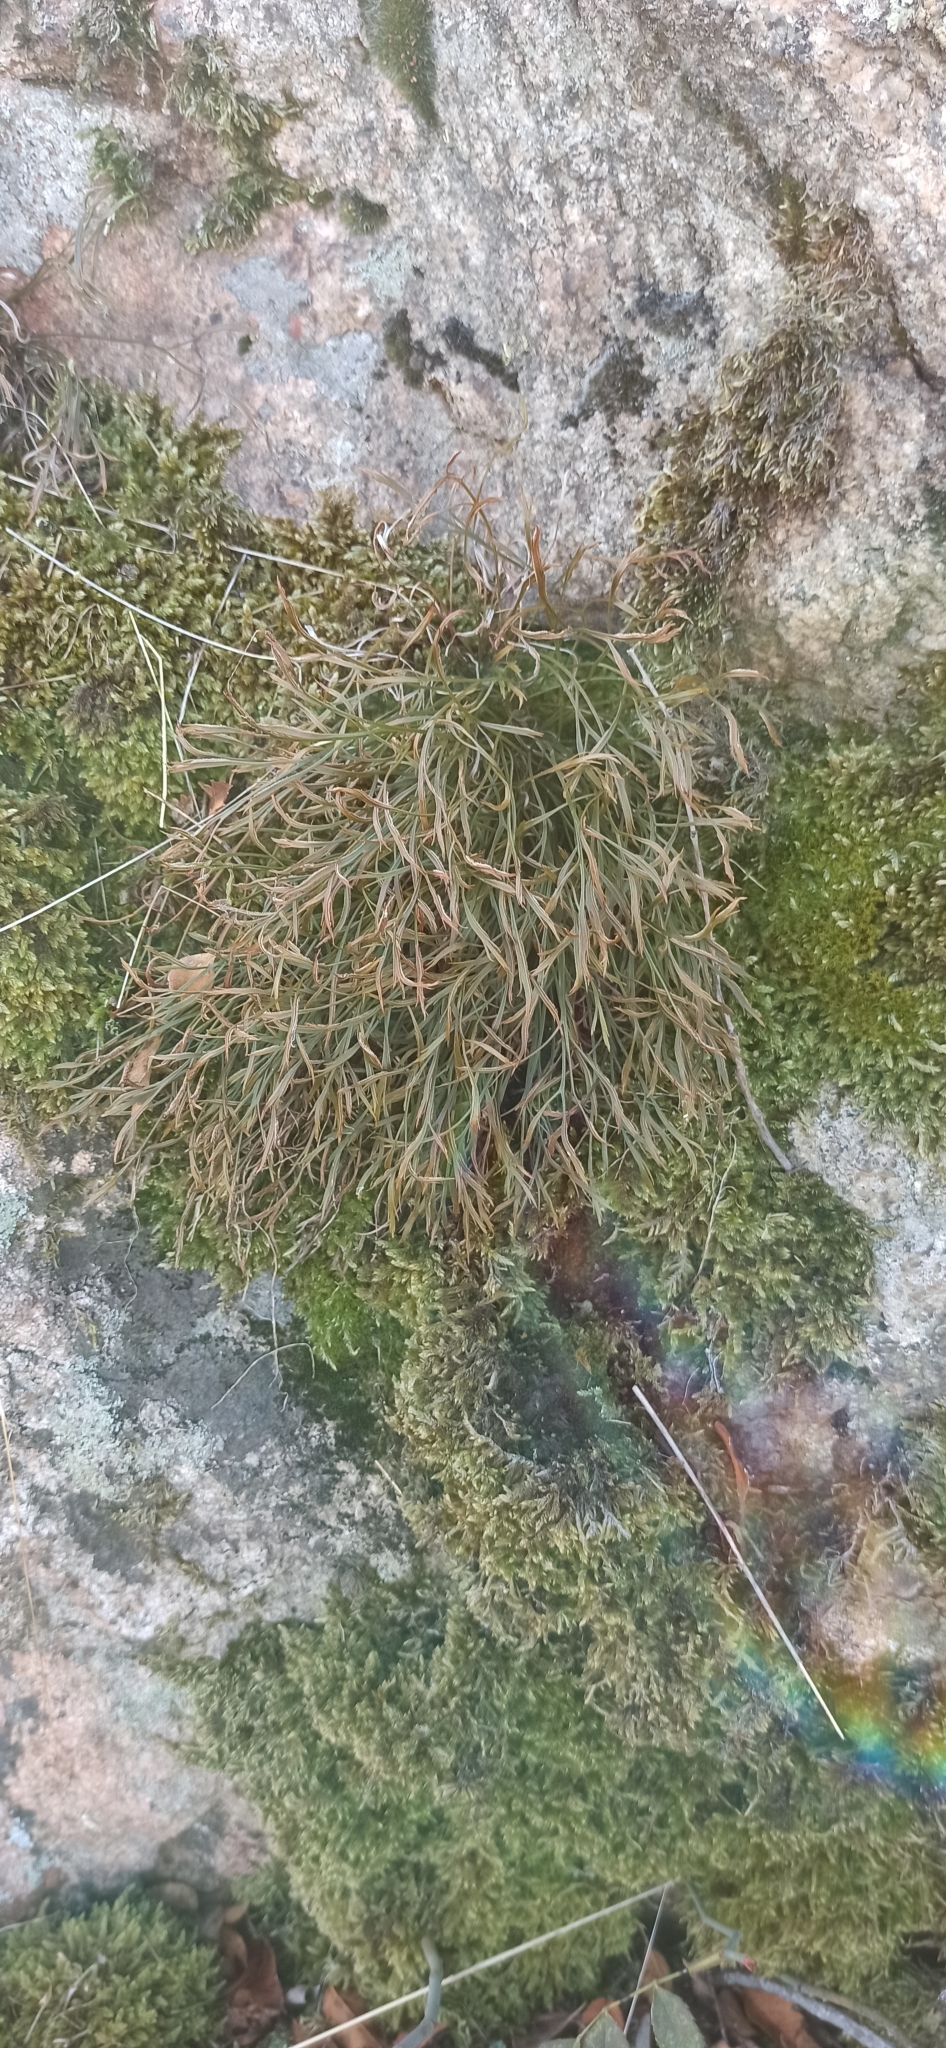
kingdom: Plantae
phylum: Tracheophyta
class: Polypodiopsida
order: Polypodiales
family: Aspleniaceae
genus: Asplenium
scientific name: Asplenium septentrionale
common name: Forked spleenwort
